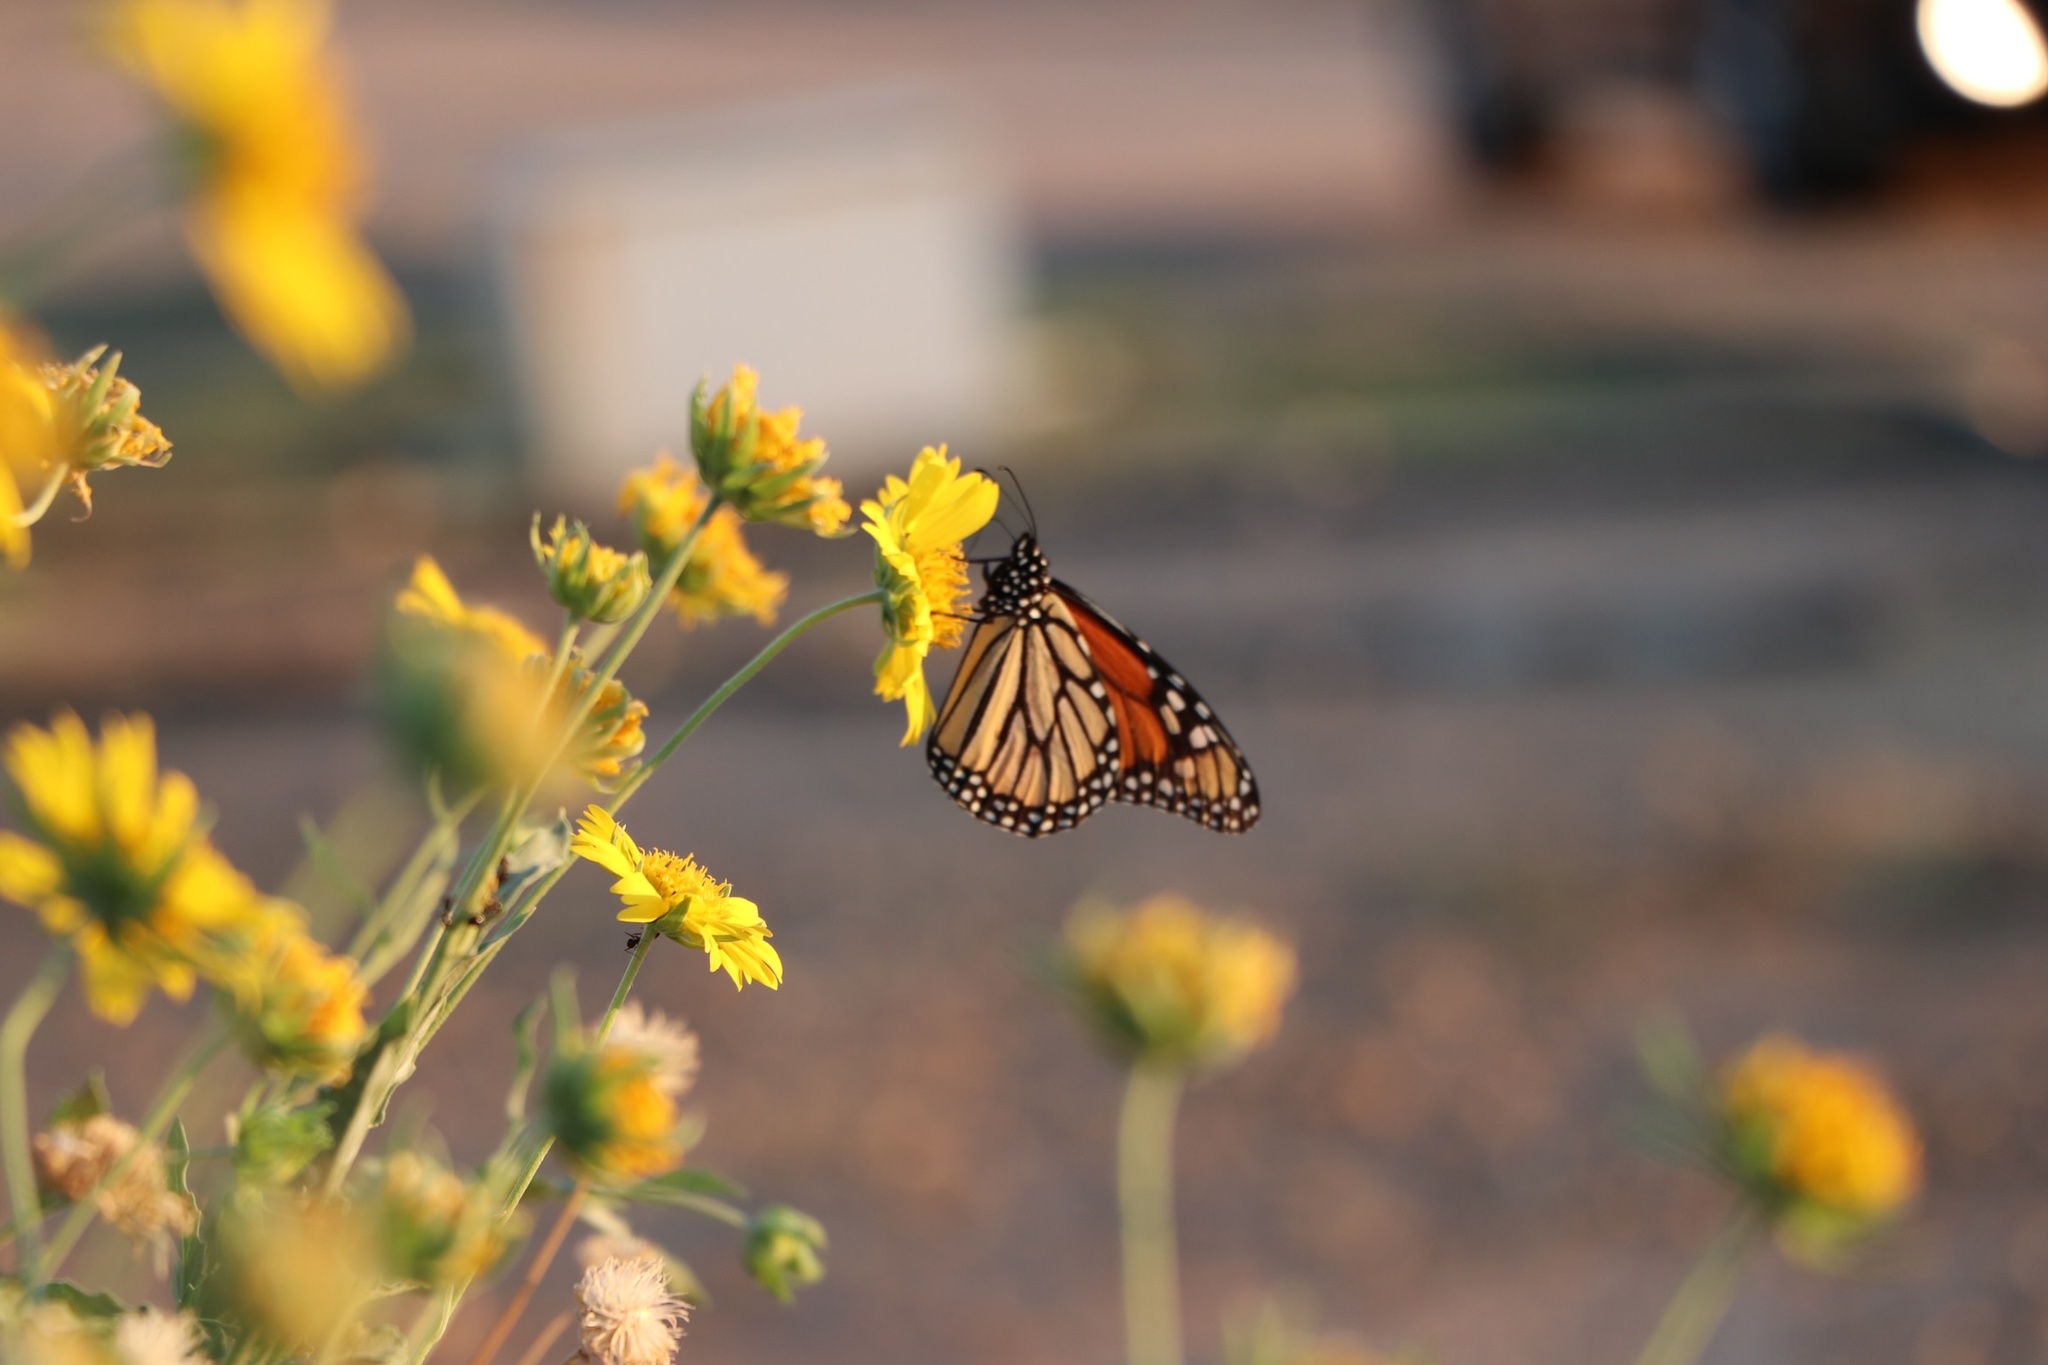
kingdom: Animalia
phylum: Arthropoda
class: Insecta
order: Lepidoptera
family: Nymphalidae
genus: Danaus
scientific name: Danaus plexippus
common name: Monarch
